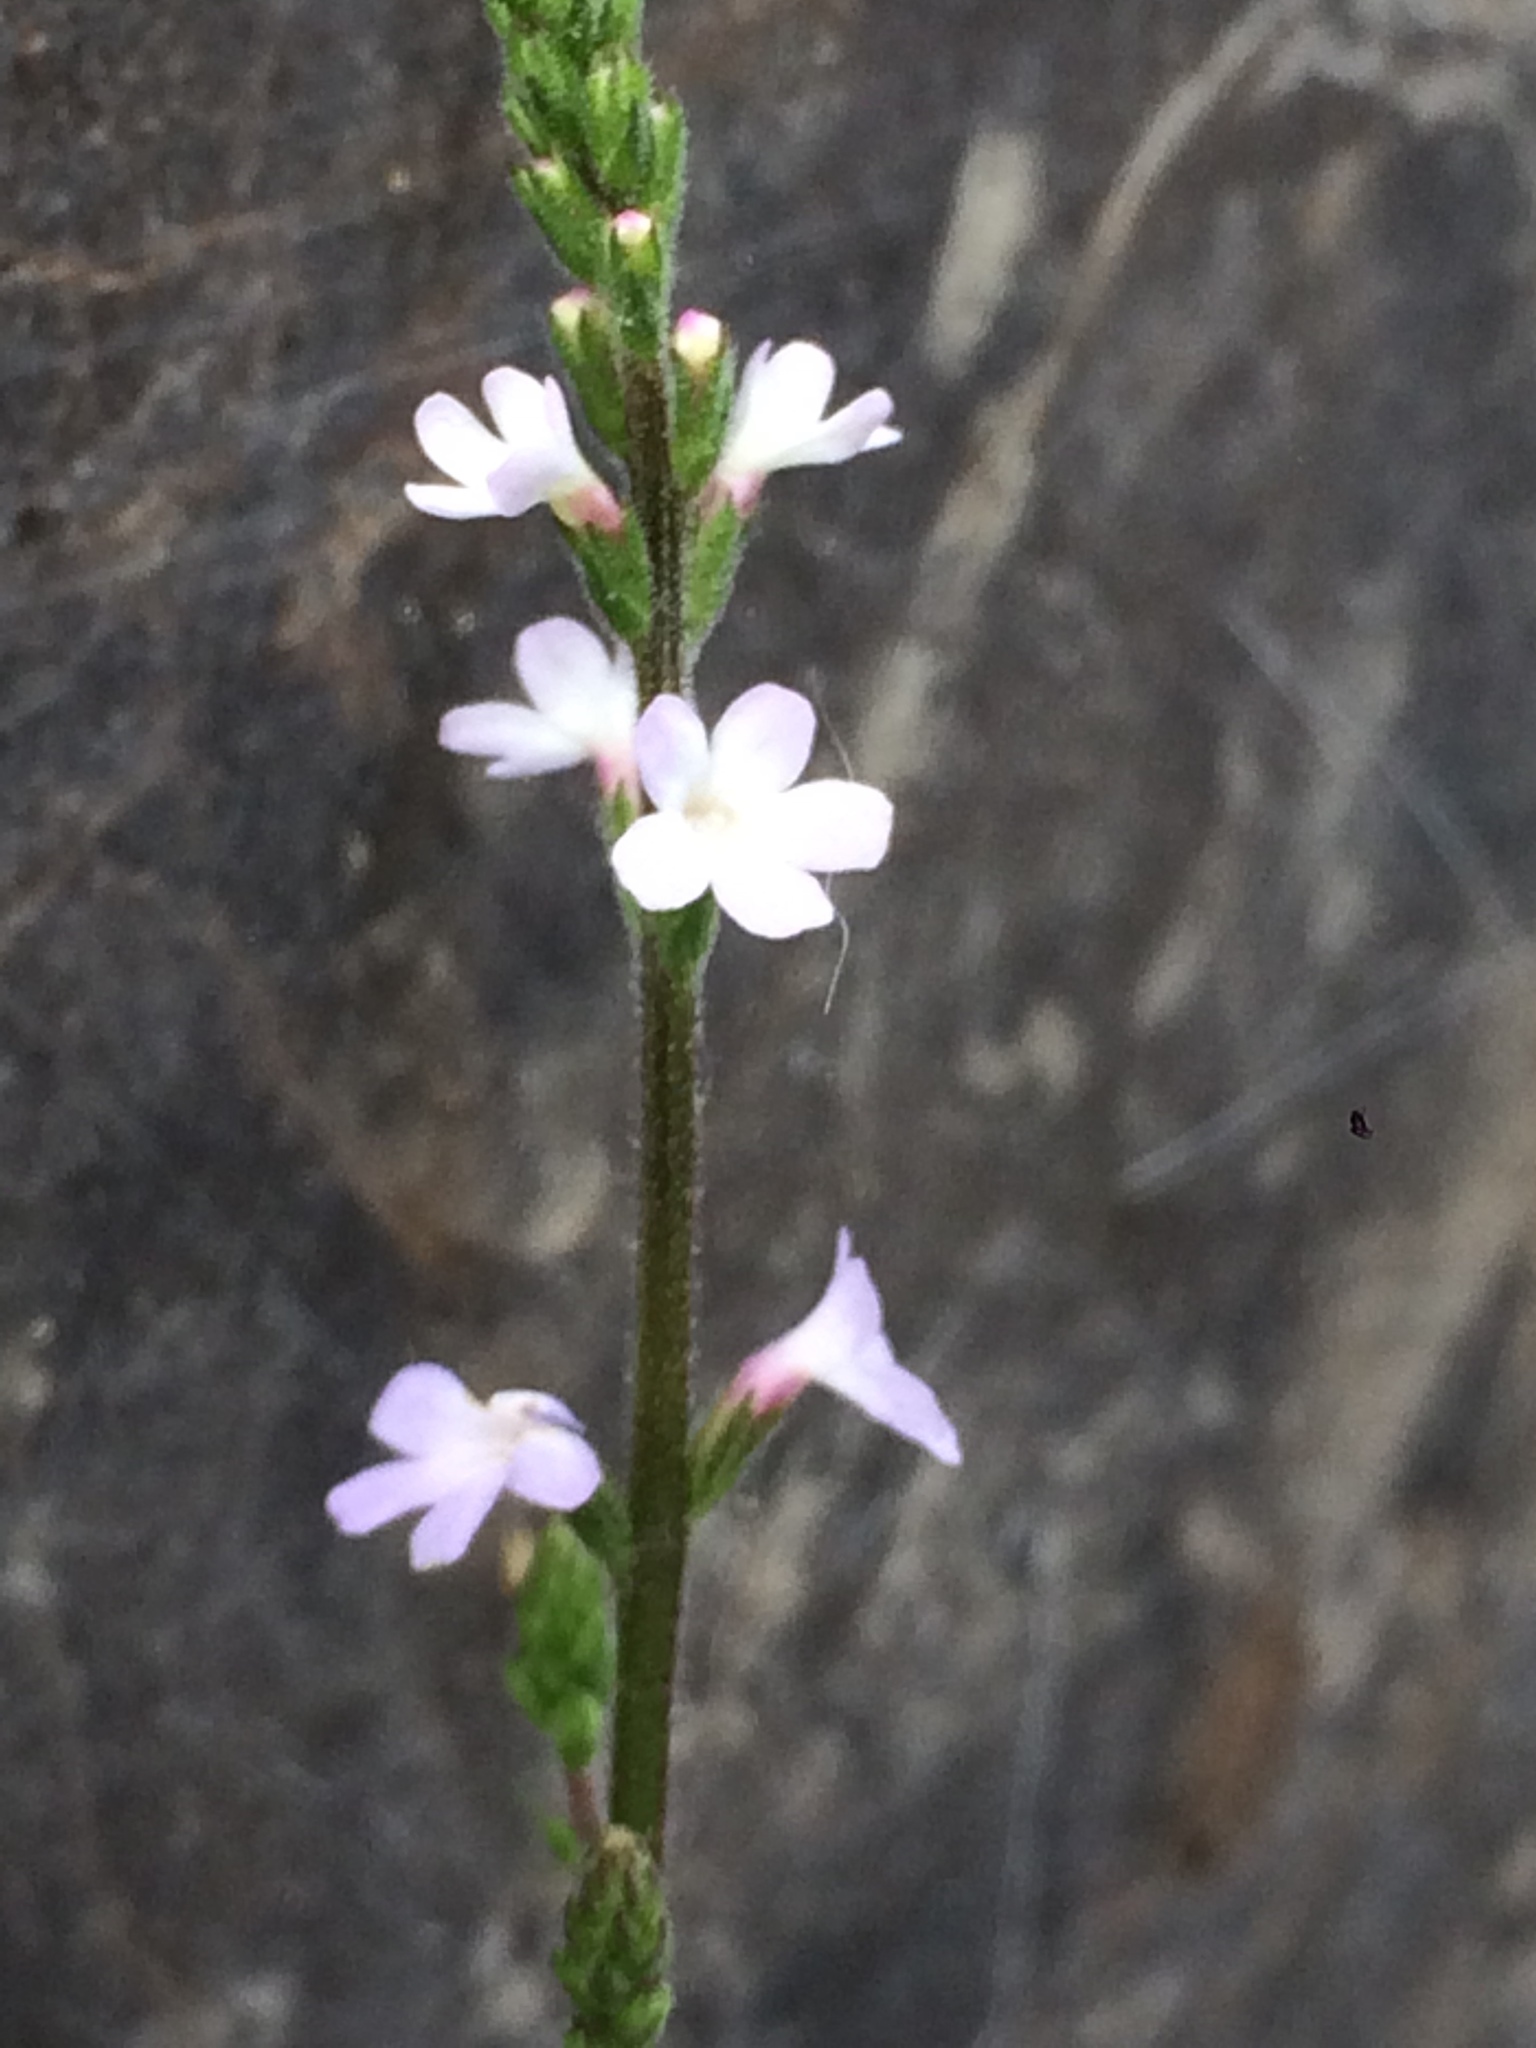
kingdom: Plantae
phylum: Tracheophyta
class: Magnoliopsida
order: Lamiales
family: Verbenaceae
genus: Verbena
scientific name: Verbena officinalis
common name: Vervain
